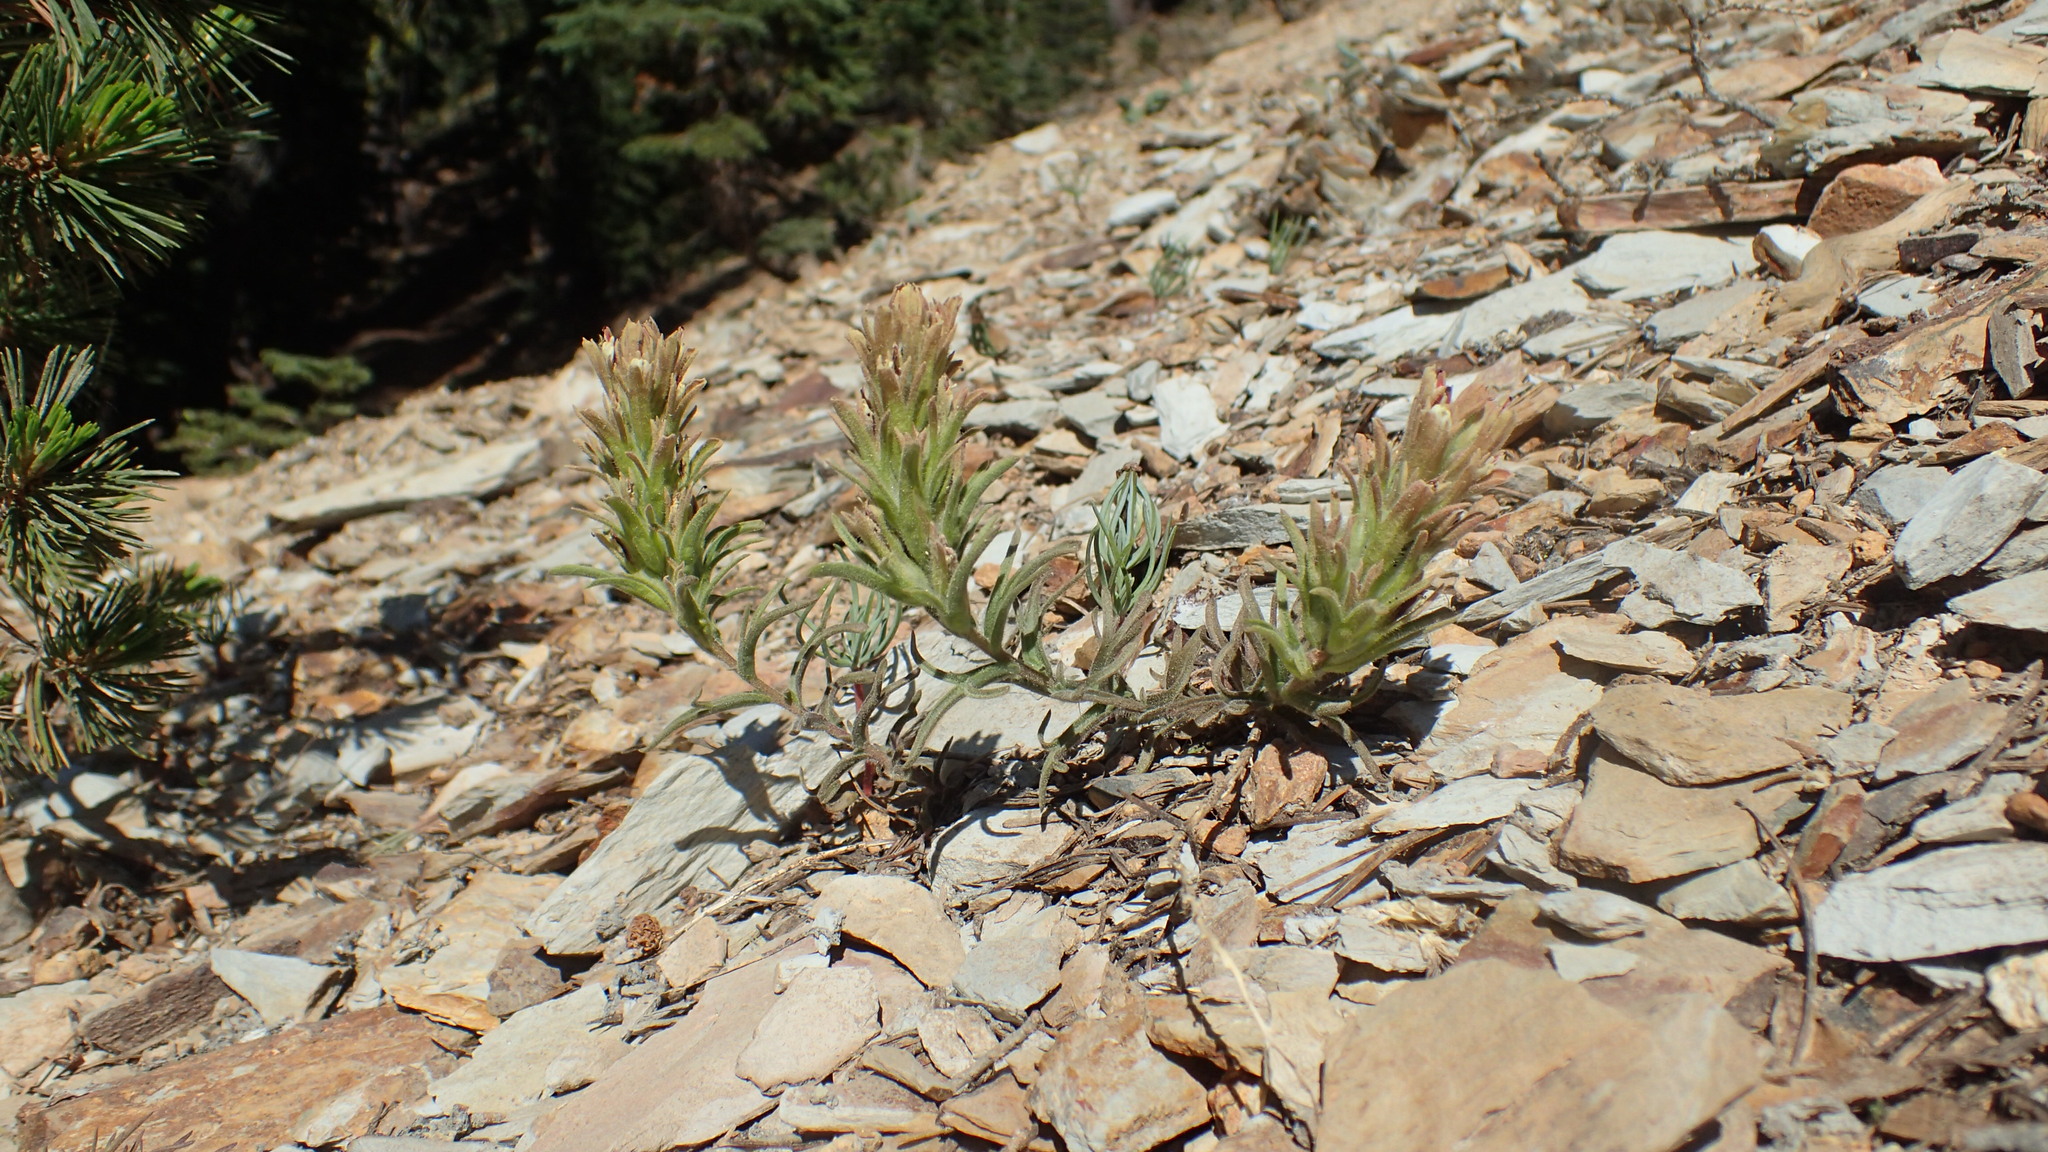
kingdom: Plantae
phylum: Tracheophyta
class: Magnoliopsida
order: Lamiales
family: Orobanchaceae
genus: Castilleja
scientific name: Castilleja nana
